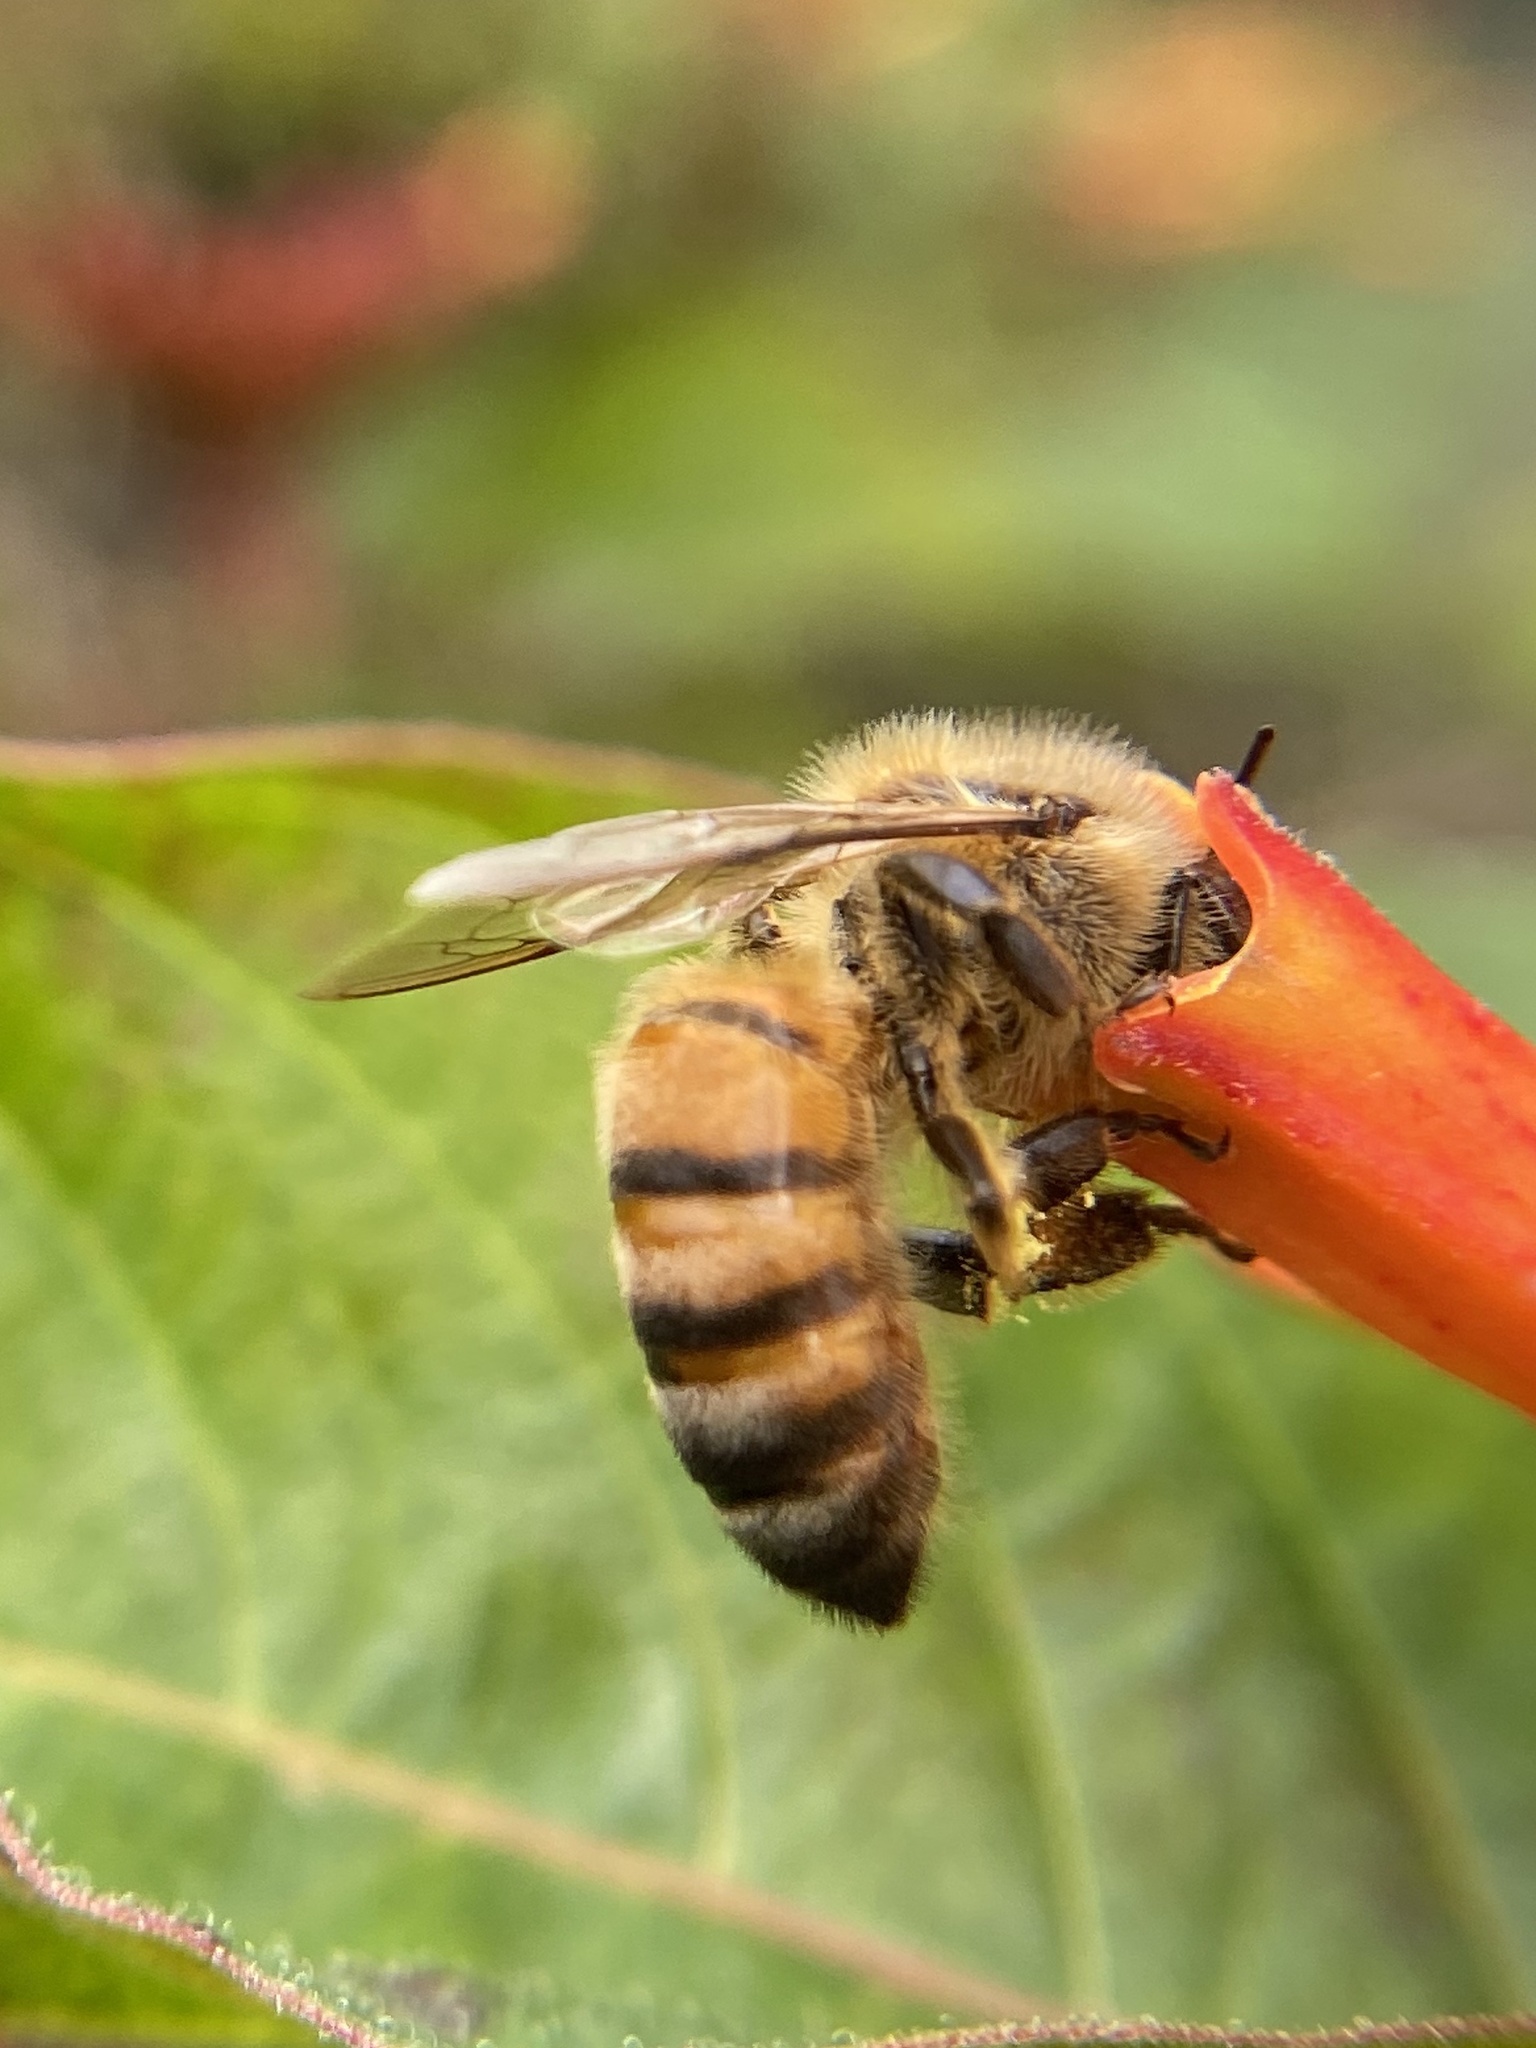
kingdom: Animalia
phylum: Arthropoda
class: Insecta
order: Hymenoptera
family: Apidae
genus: Apis
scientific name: Apis mellifera
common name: Honey bee
